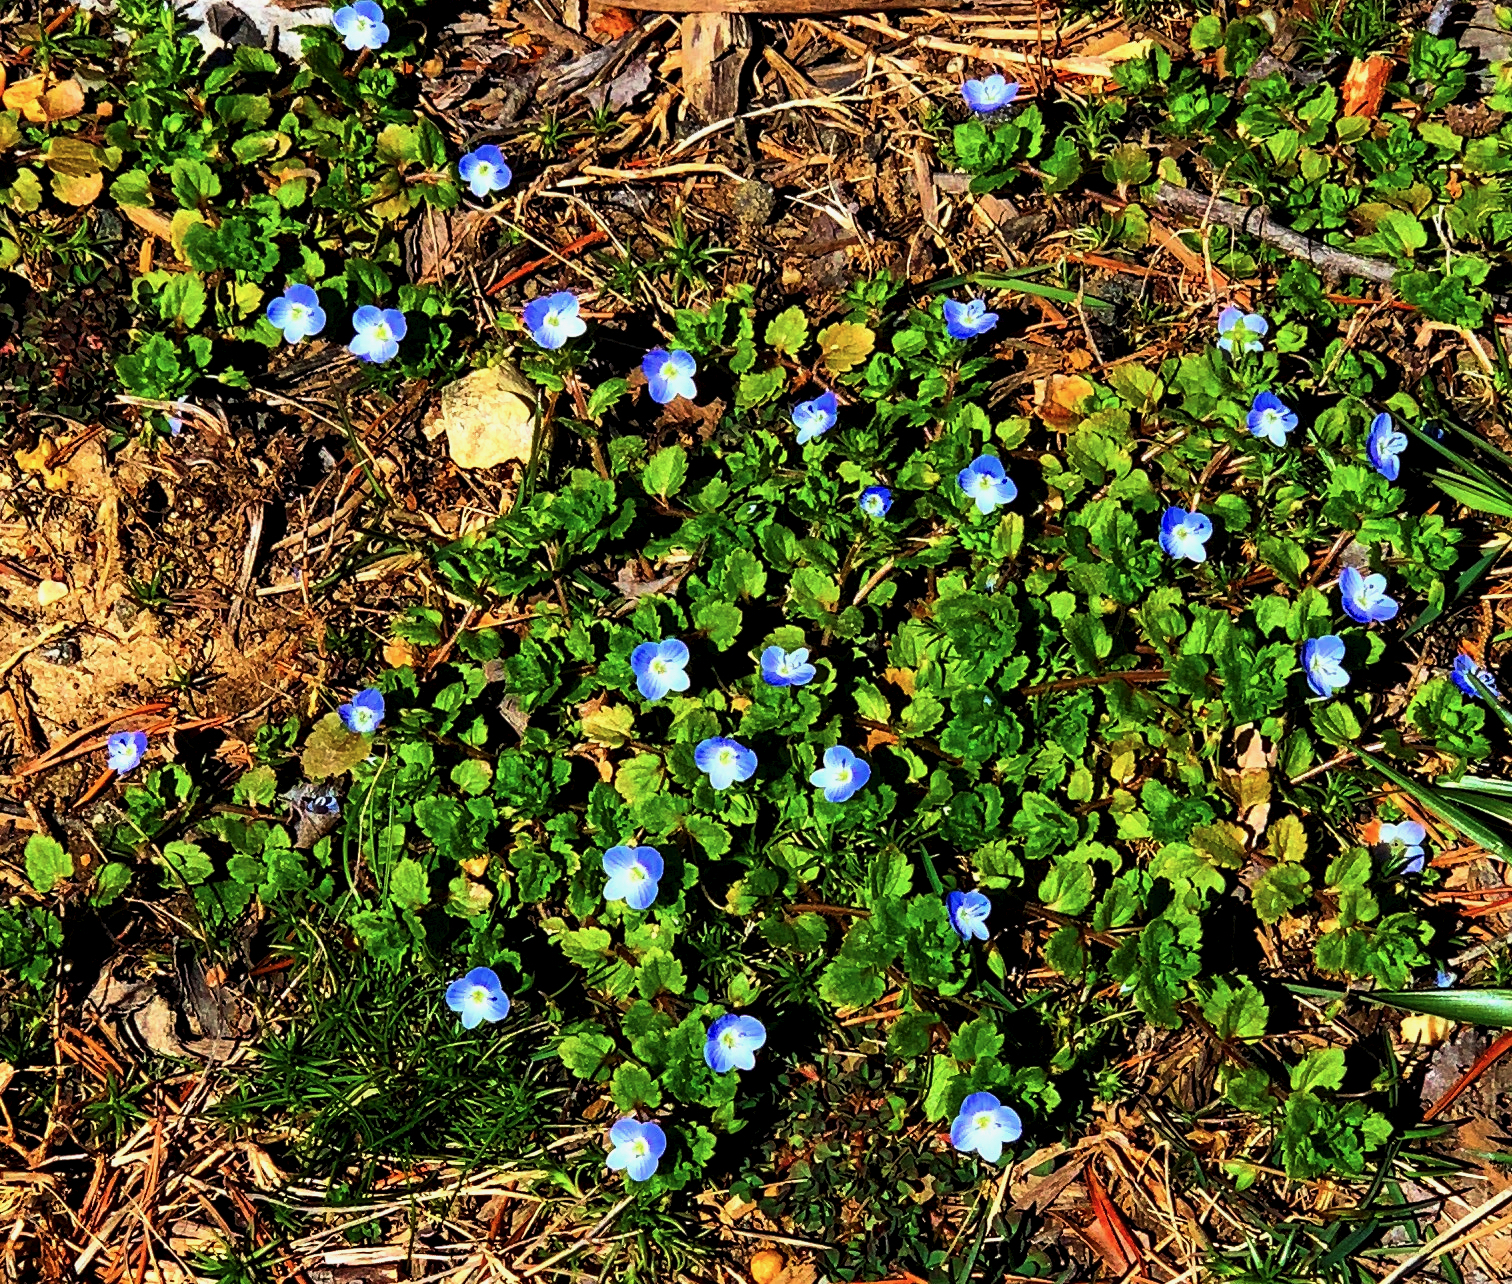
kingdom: Plantae
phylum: Tracheophyta
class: Magnoliopsida
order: Lamiales
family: Plantaginaceae
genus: Veronica
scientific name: Veronica persica
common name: Common field-speedwell
